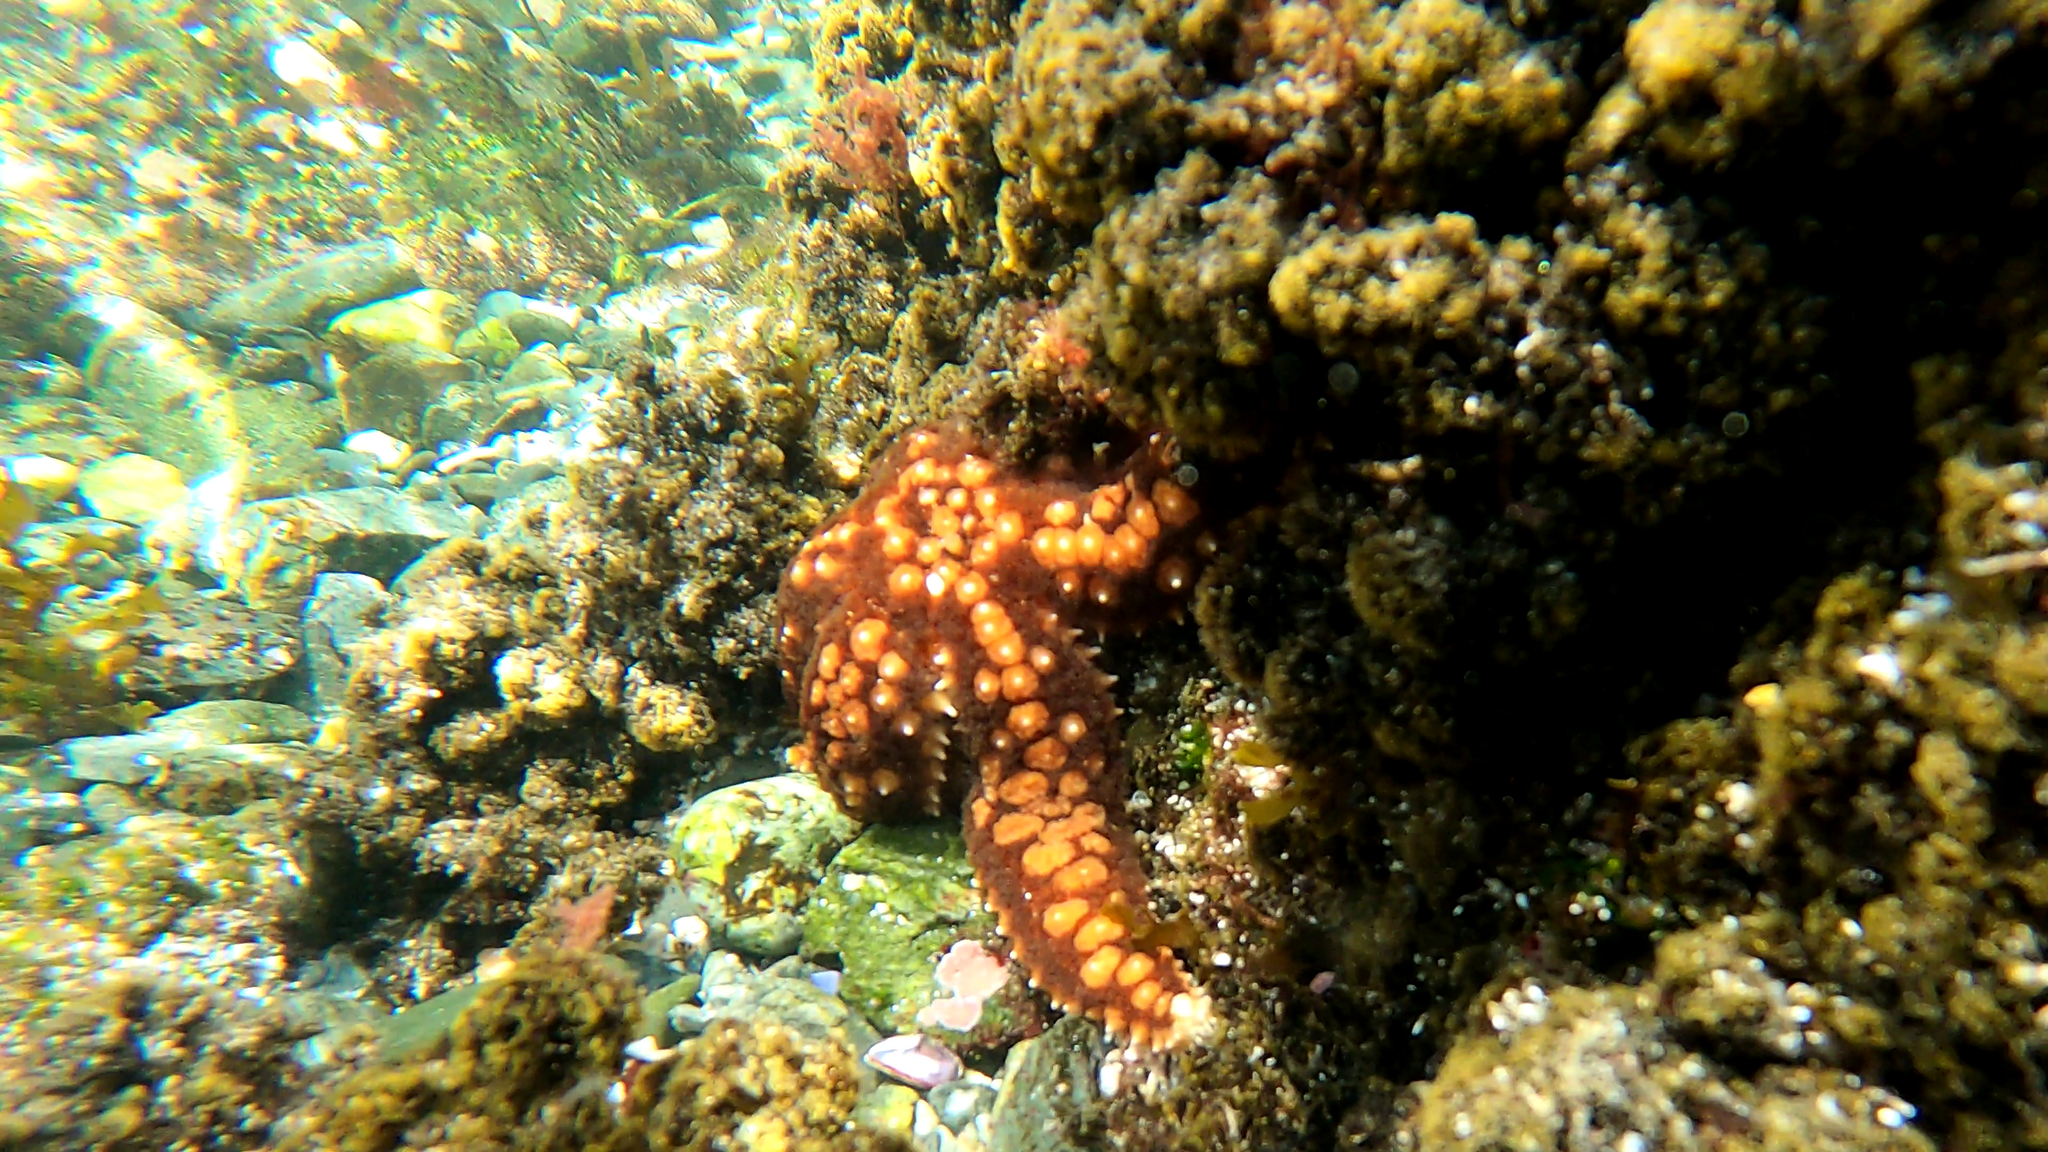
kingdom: Animalia
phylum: Echinodermata
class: Asteroidea
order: Forcipulatida
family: Asteriidae
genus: Meyenaster
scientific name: Meyenaster gelatinosus
